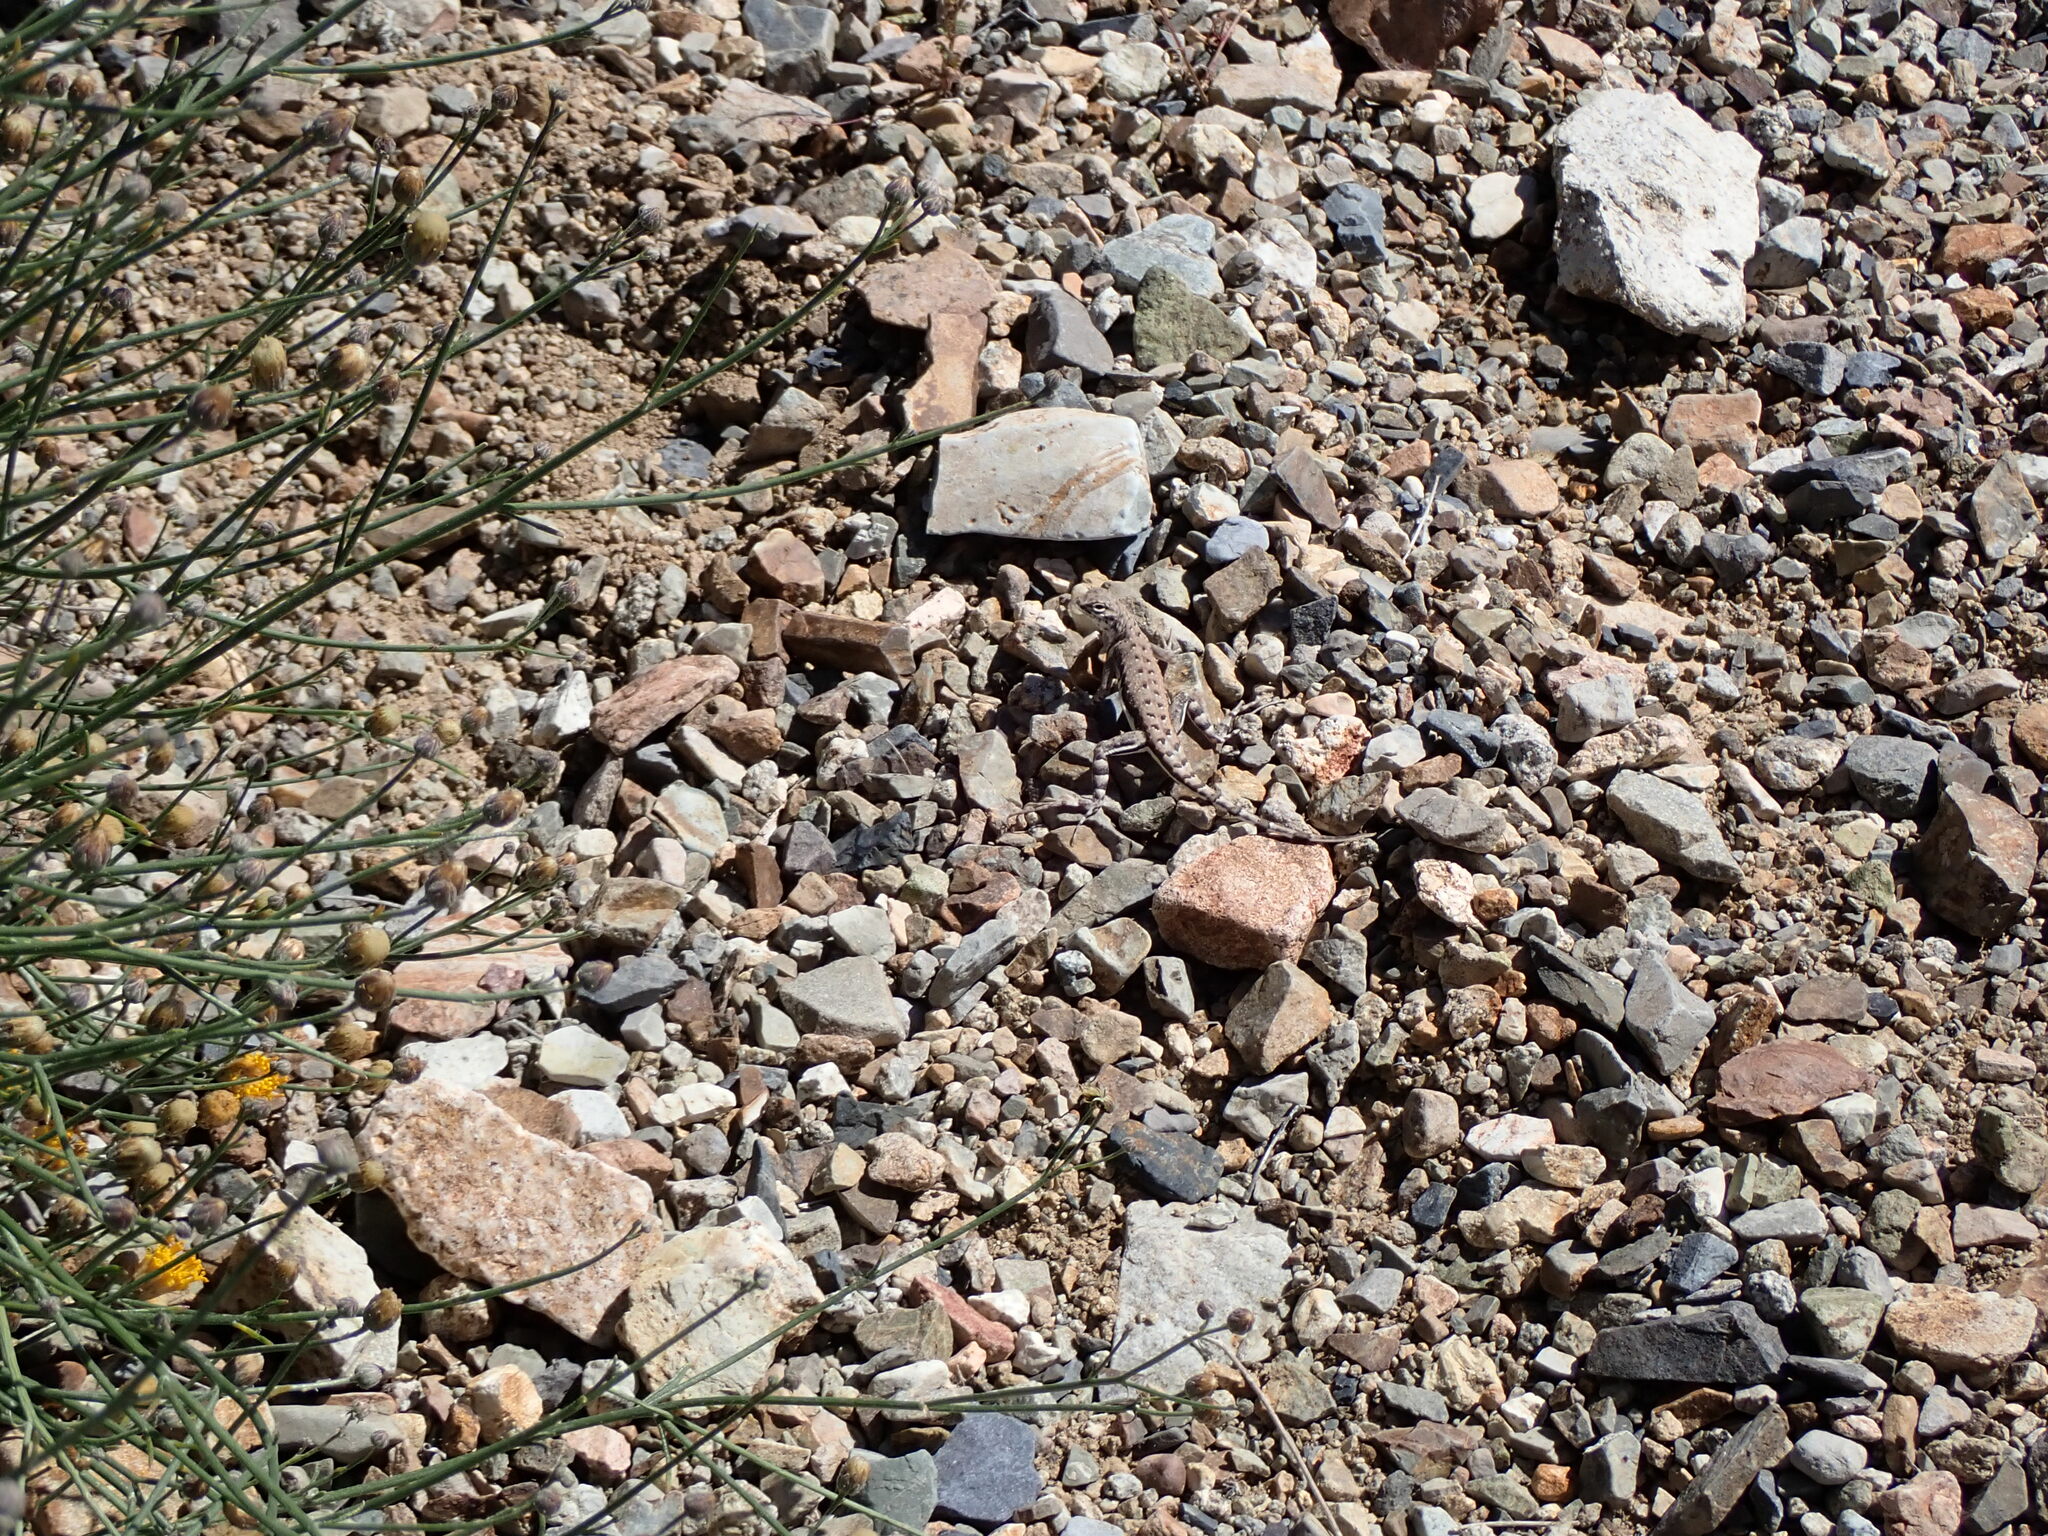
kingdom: Animalia
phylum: Chordata
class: Squamata
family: Phrynosomatidae
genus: Callisaurus
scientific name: Callisaurus draconoides
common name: Zebra-tailed lizard
